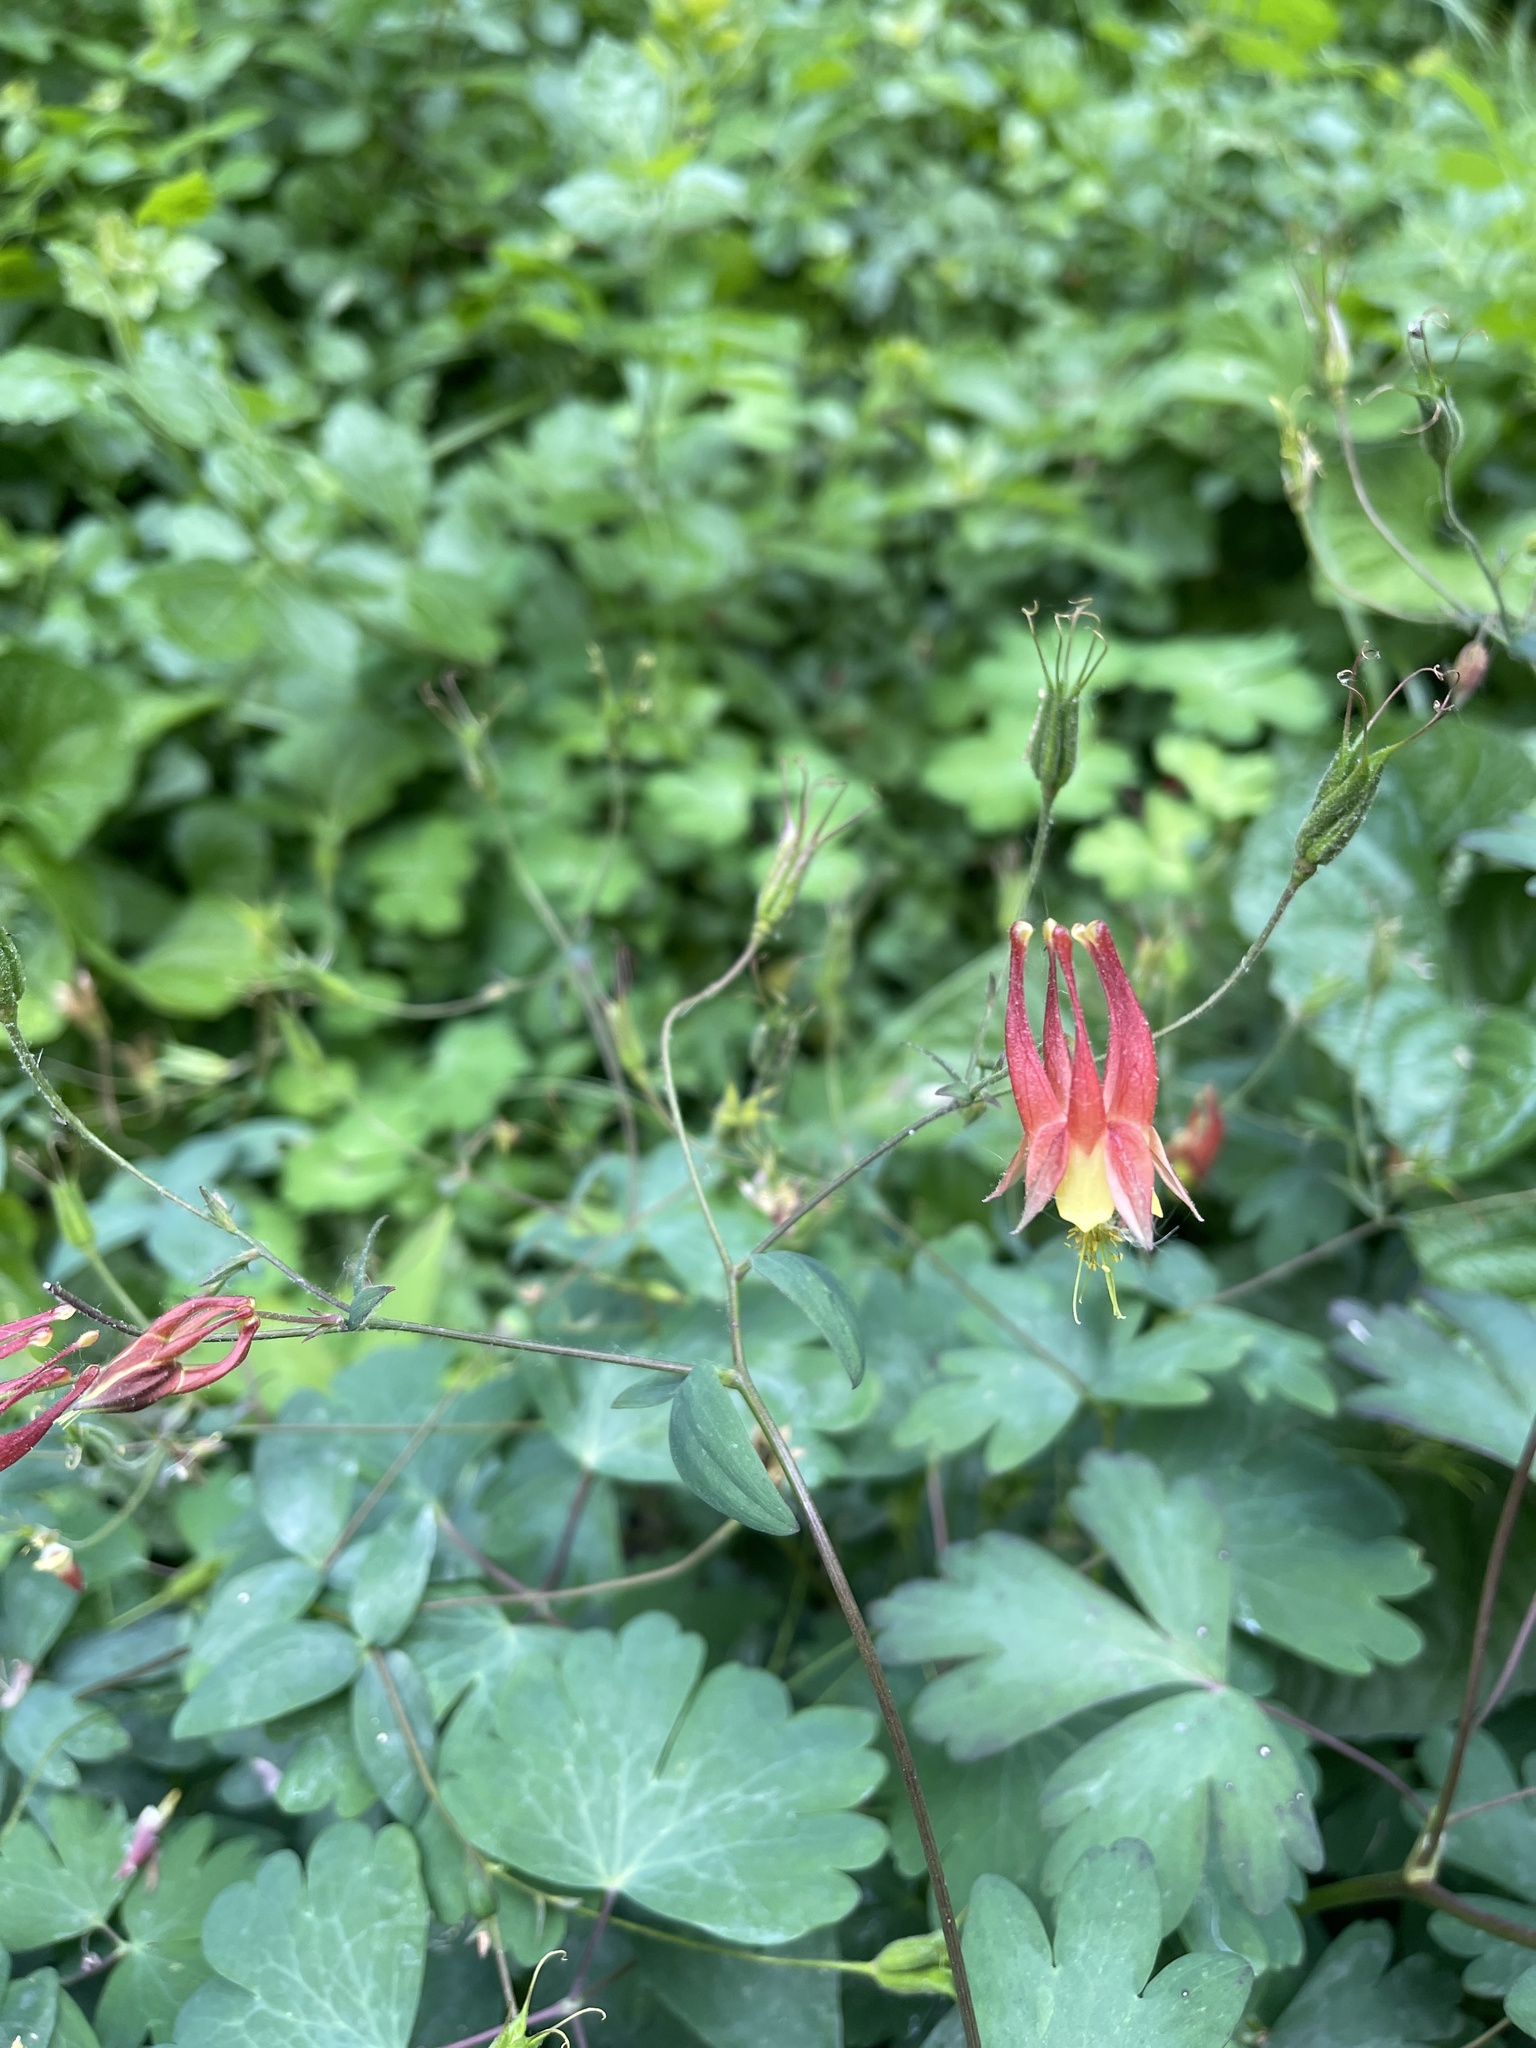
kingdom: Plantae
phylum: Tracheophyta
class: Magnoliopsida
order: Ranunculales
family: Ranunculaceae
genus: Aquilegia
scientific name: Aquilegia canadensis
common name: American columbine
